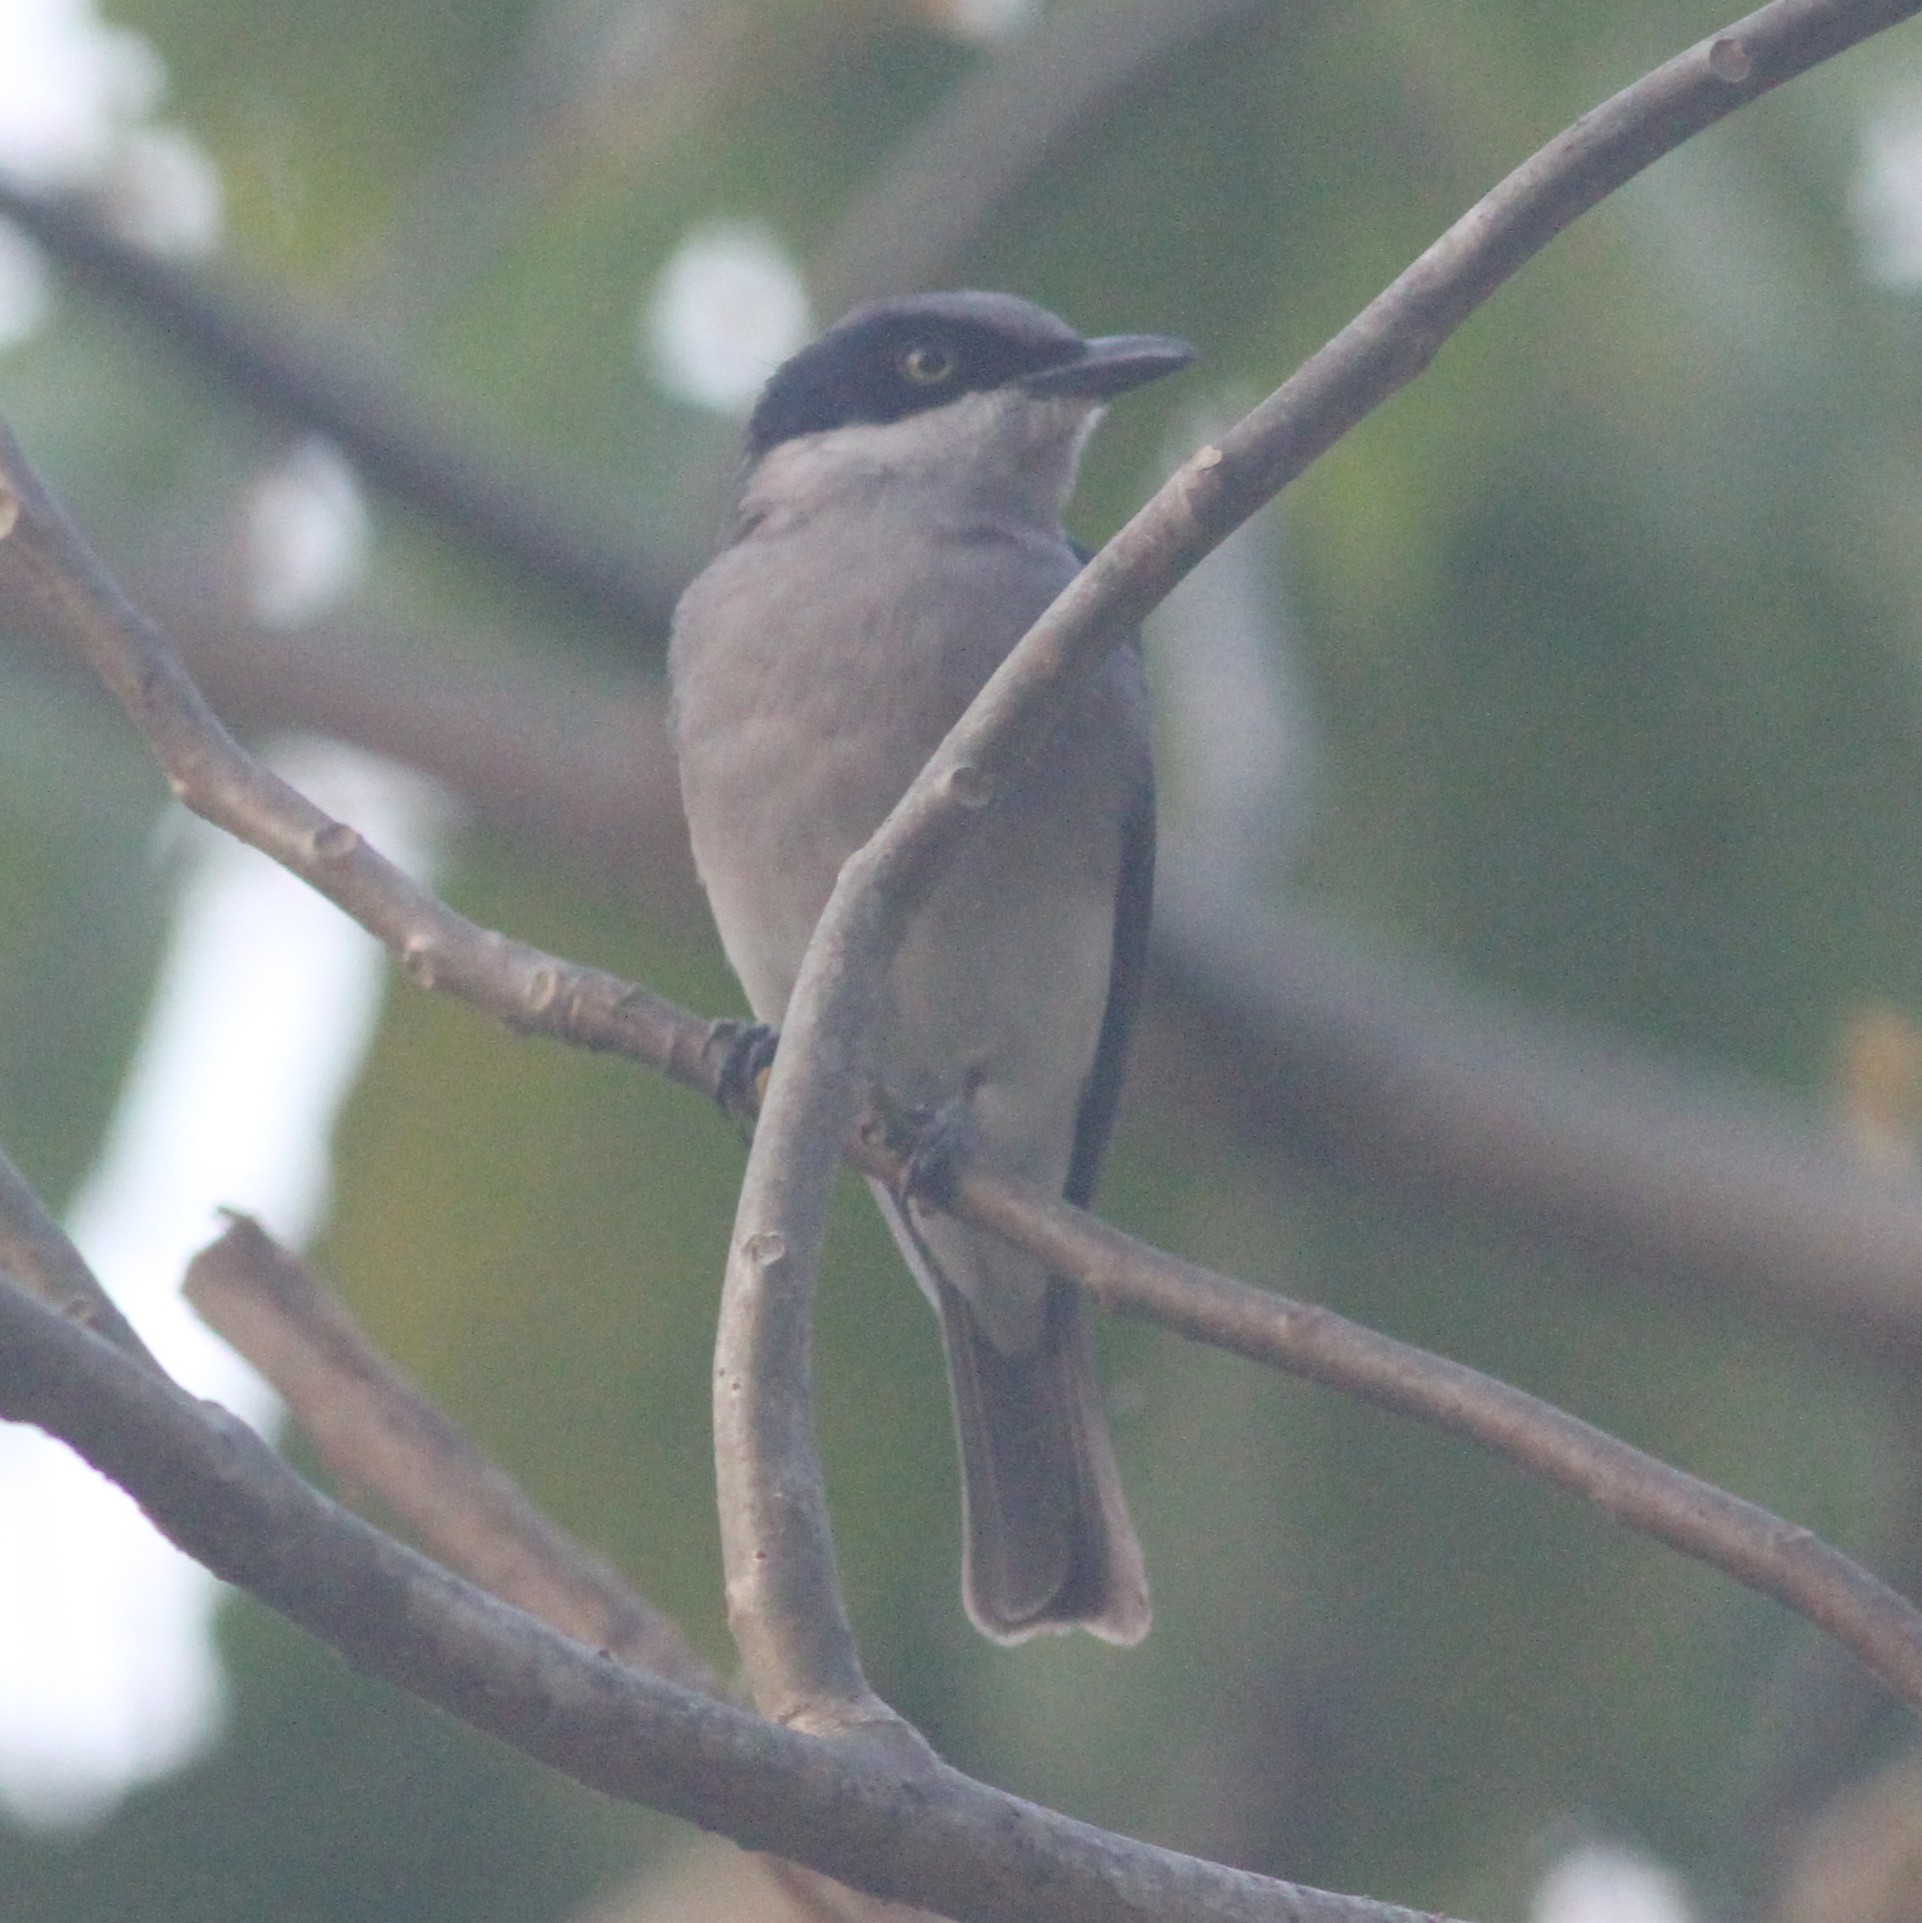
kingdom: Animalia
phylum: Chordata
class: Aves
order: Passeriformes
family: Tephrodornithidae
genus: Tephrodornis
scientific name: Tephrodornis sylvicola
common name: Malabar woodshrike
